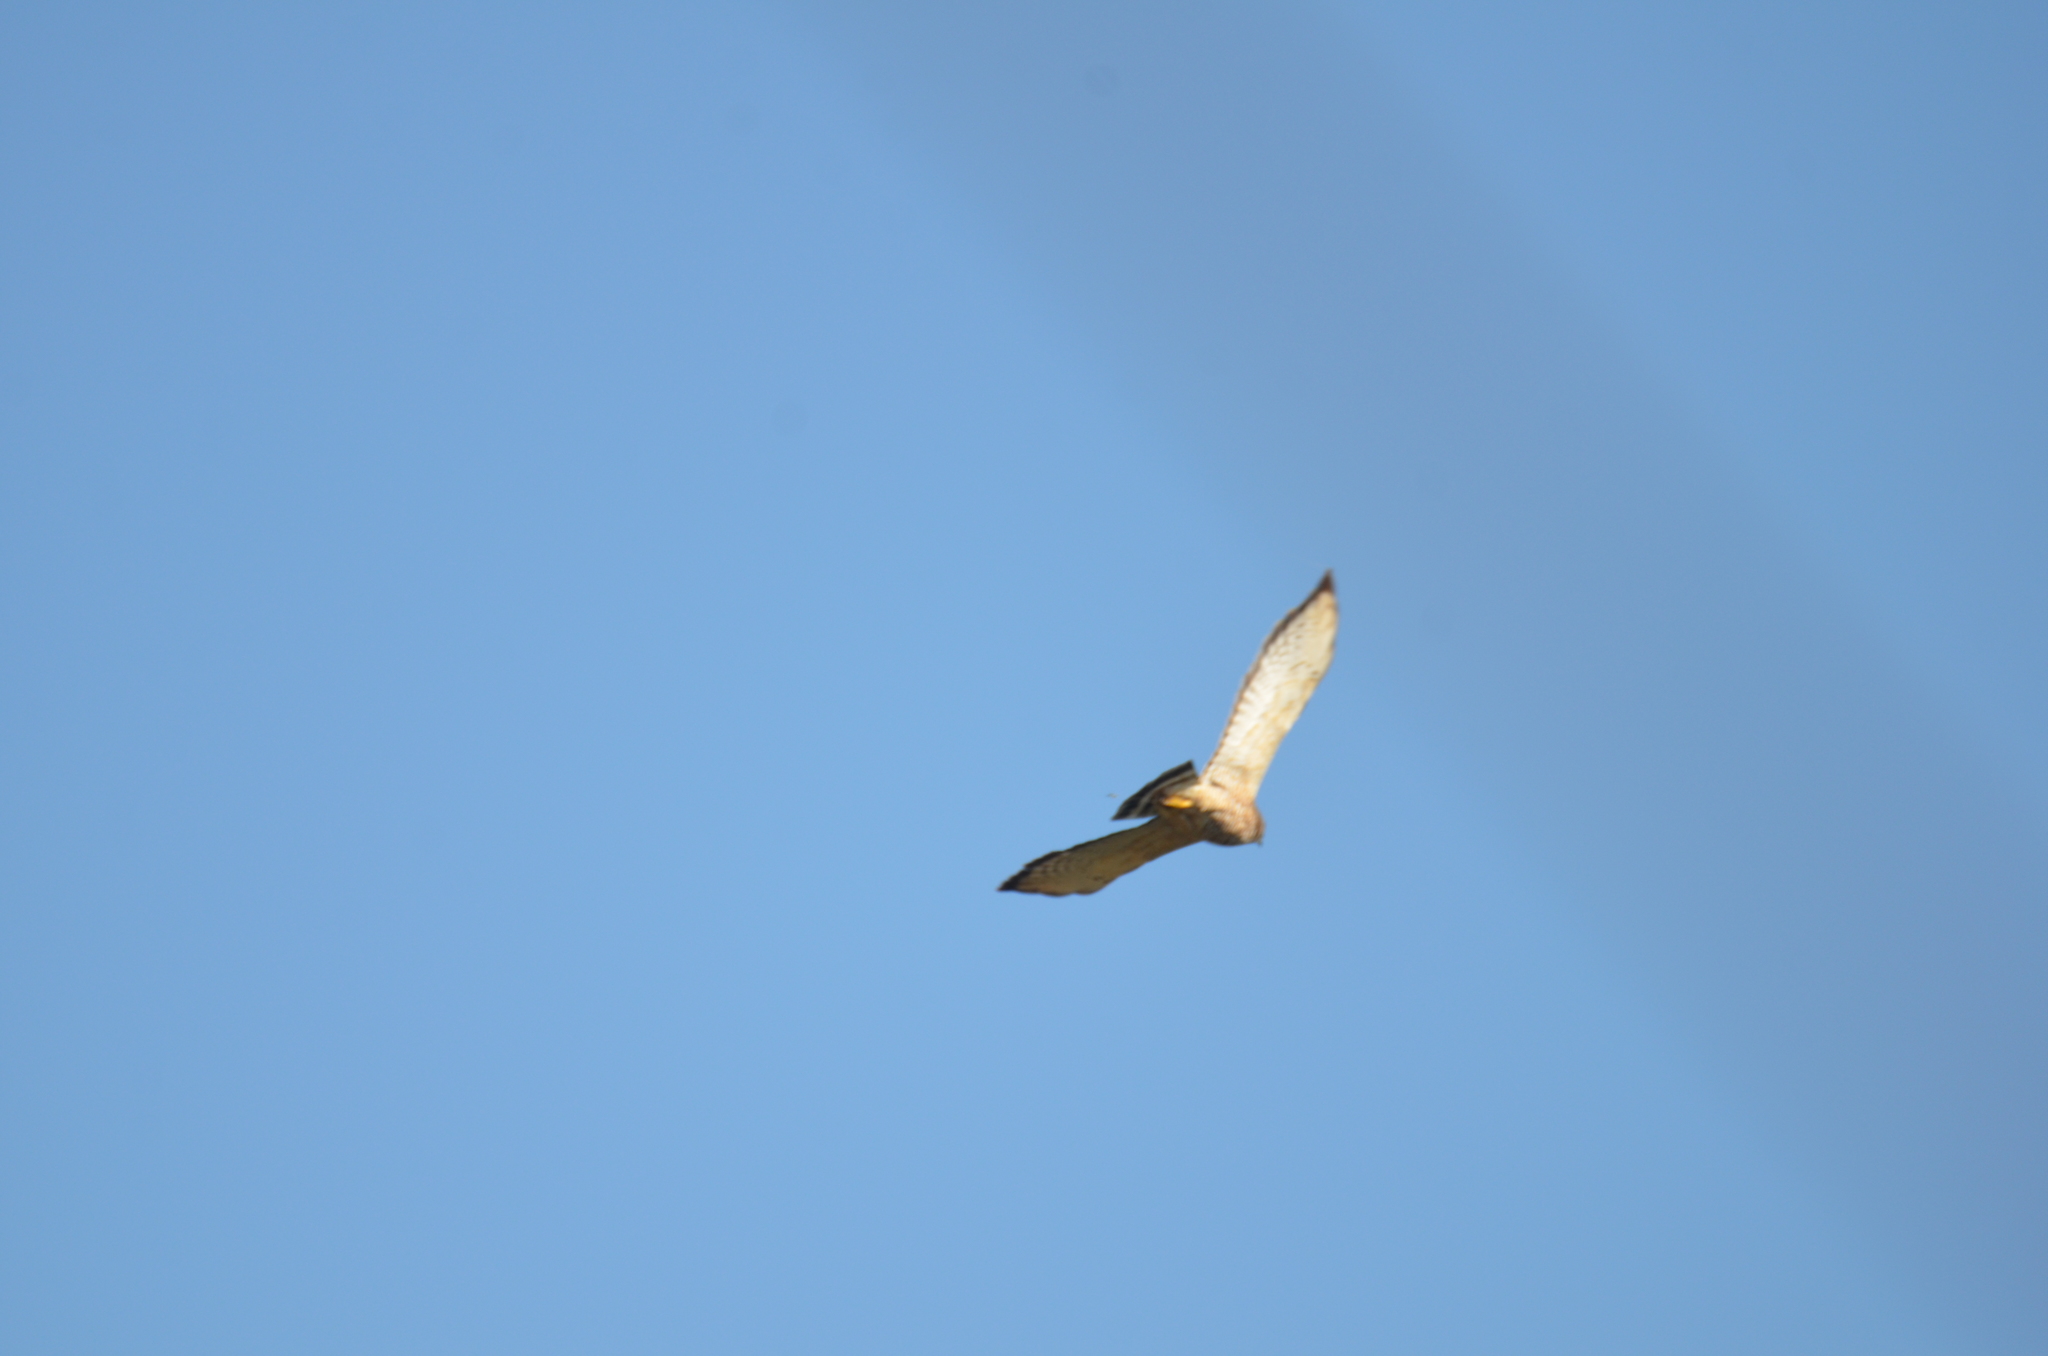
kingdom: Animalia
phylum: Chordata
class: Aves
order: Accipitriformes
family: Accipitridae
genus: Buteo
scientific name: Buteo platypterus
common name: Broad-winged hawk
